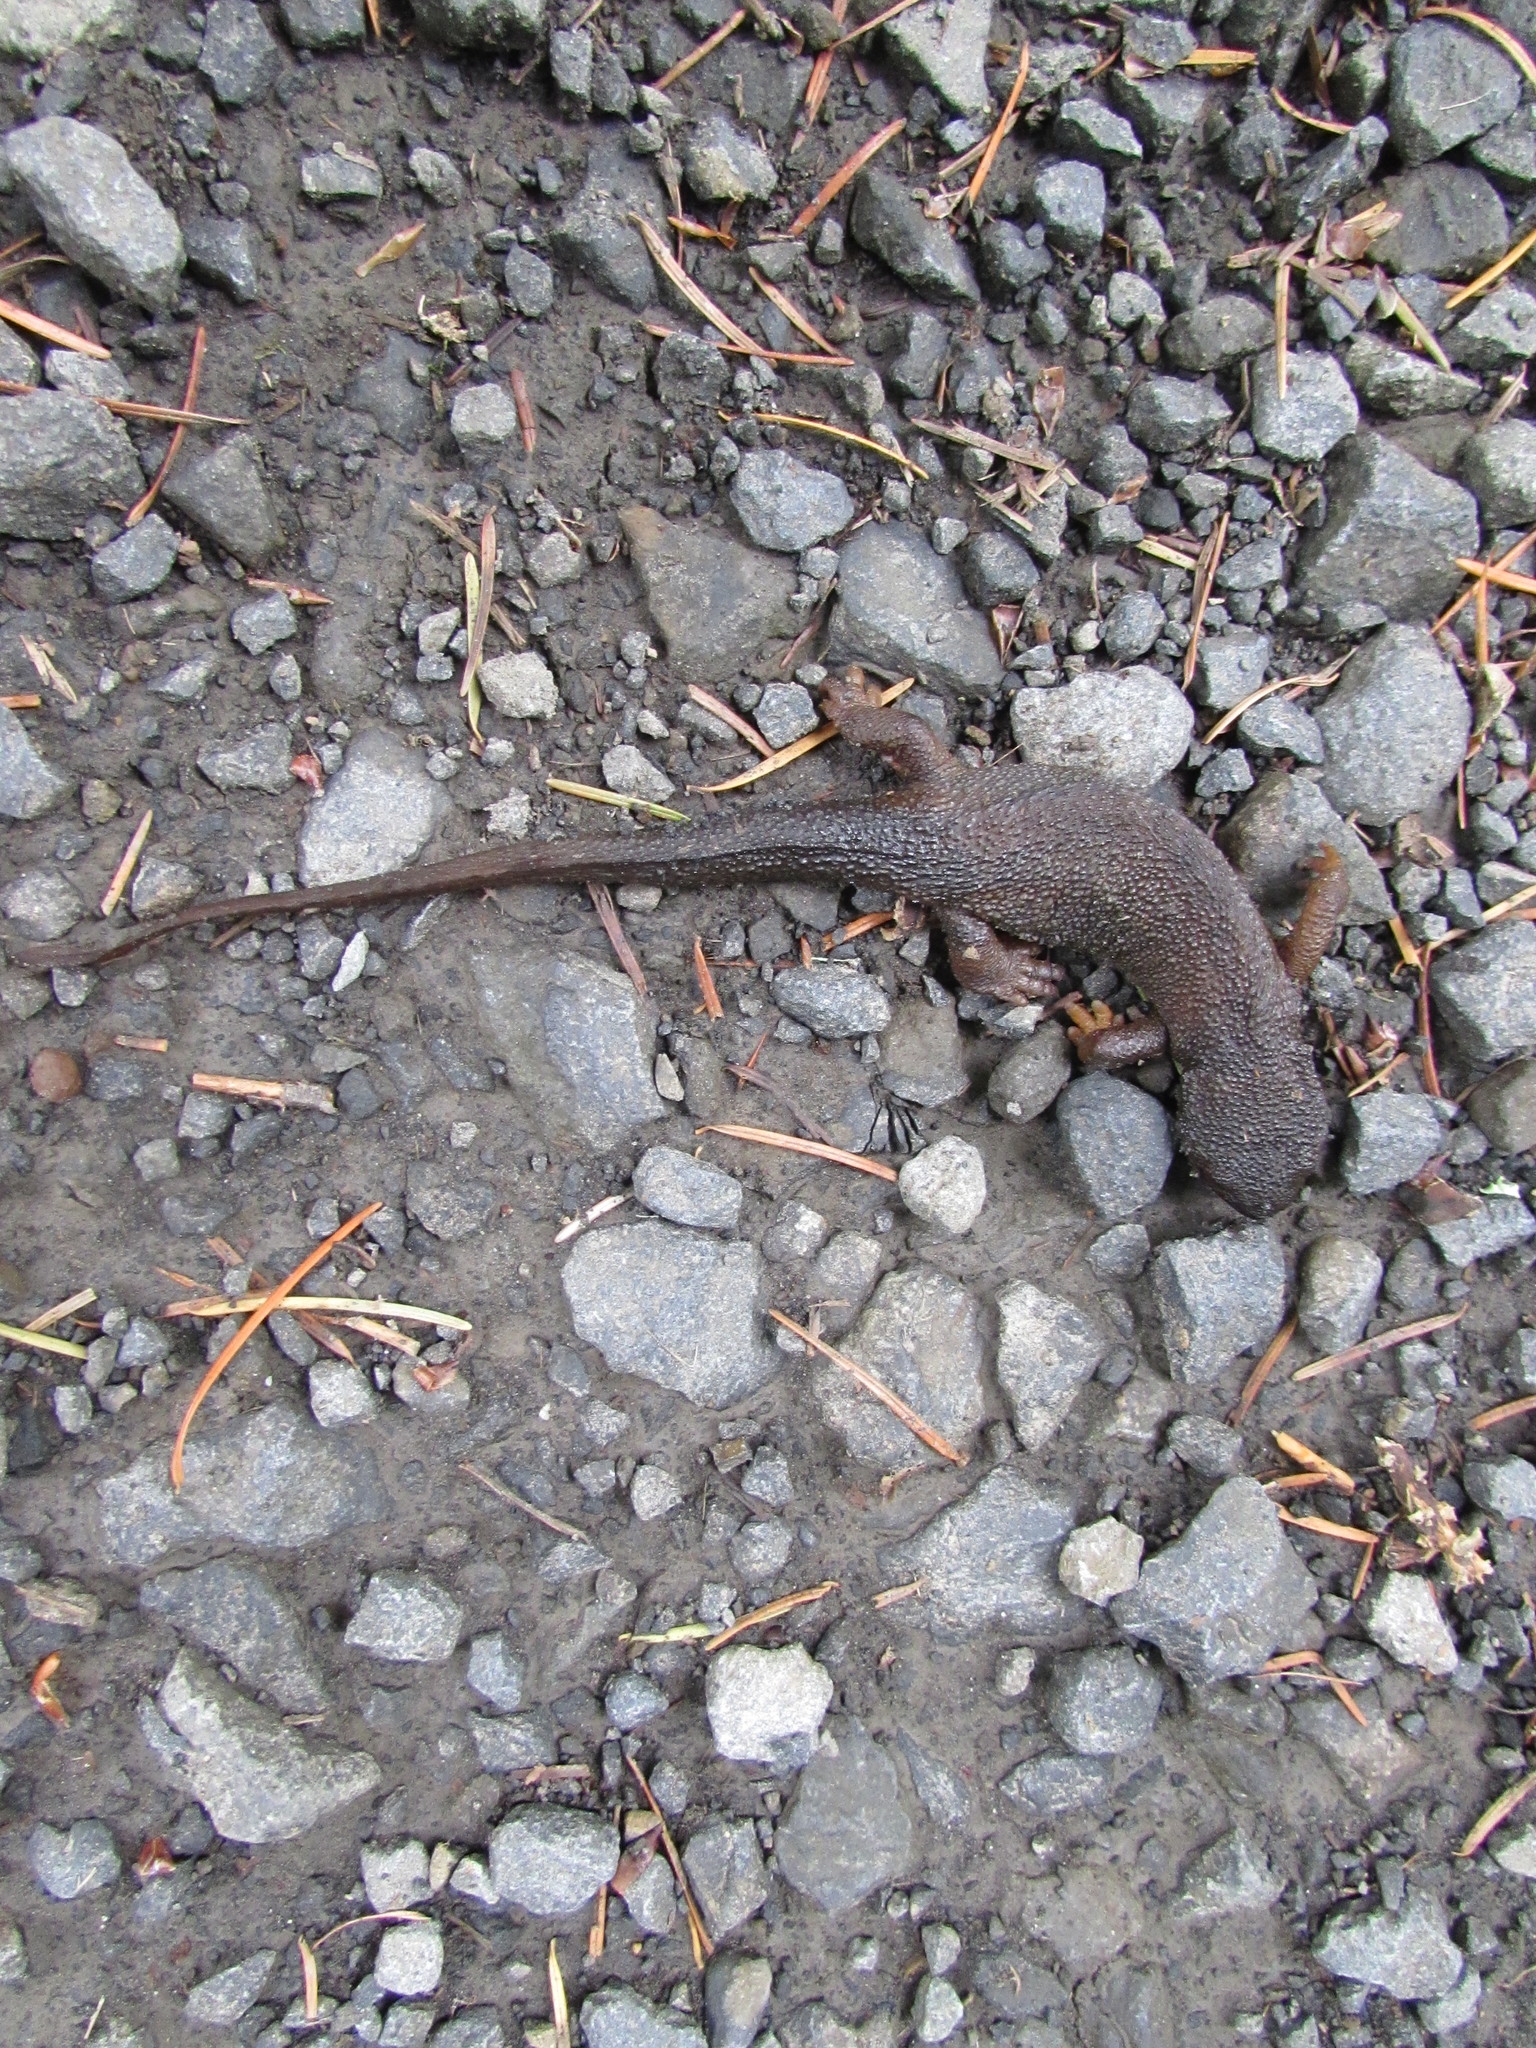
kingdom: Animalia
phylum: Chordata
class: Amphibia
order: Caudata
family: Salamandridae
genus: Taricha
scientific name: Taricha granulosa
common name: Roughskin newt
